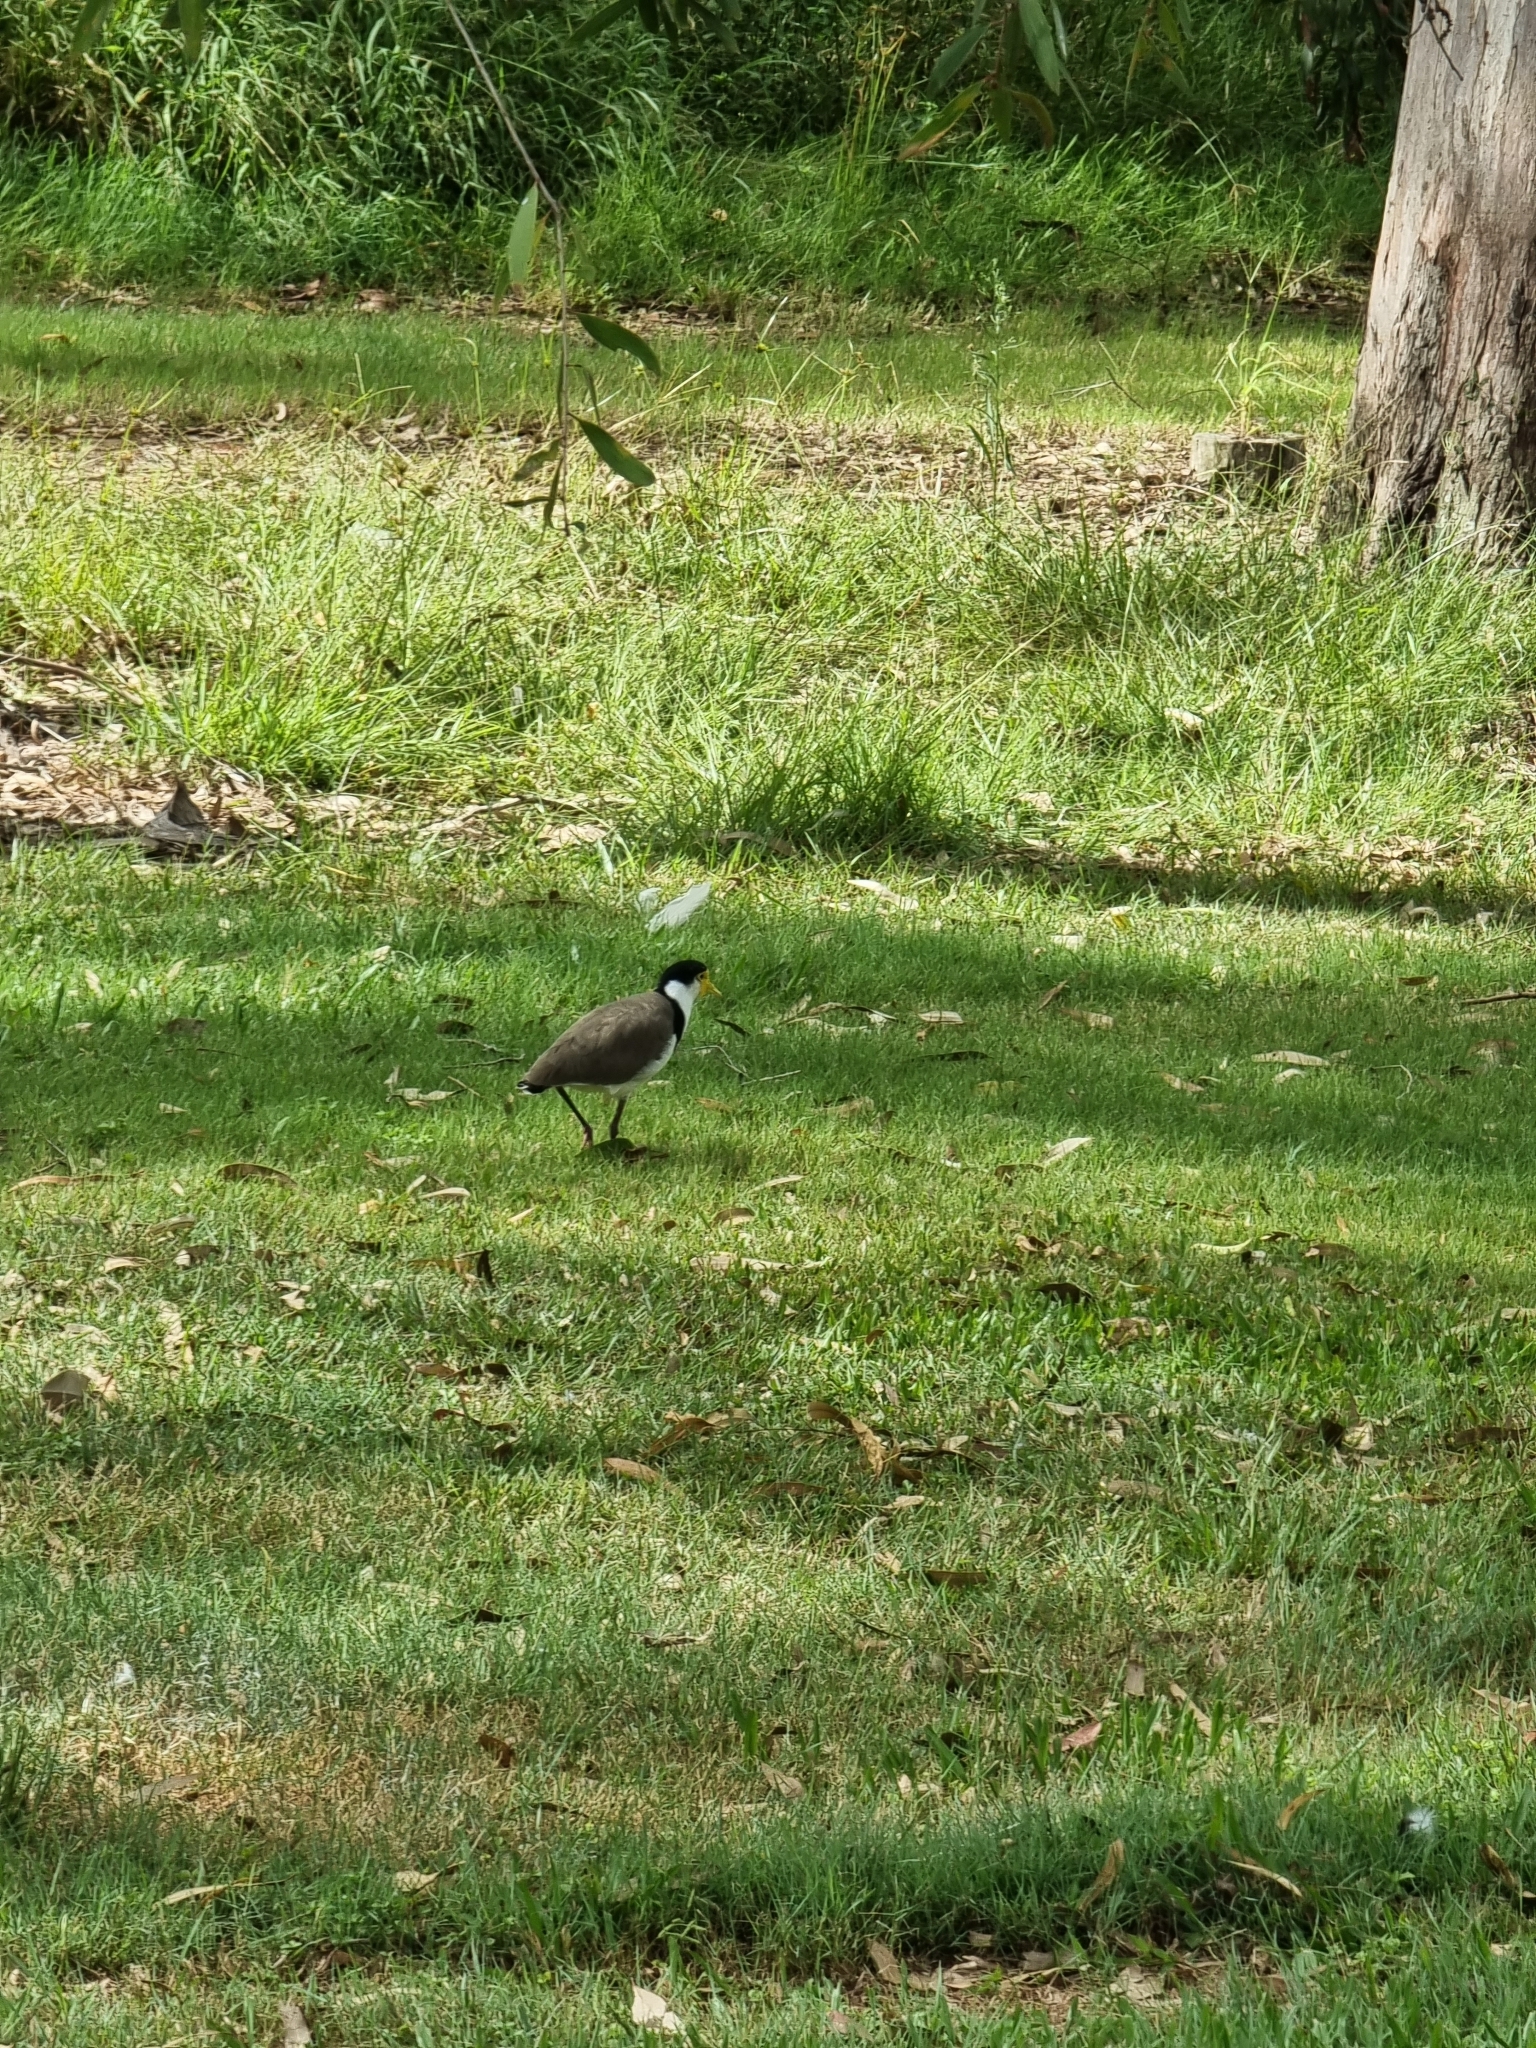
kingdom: Animalia
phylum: Chordata
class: Aves
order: Charadriiformes
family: Charadriidae
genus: Vanellus
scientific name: Vanellus miles
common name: Masked lapwing
